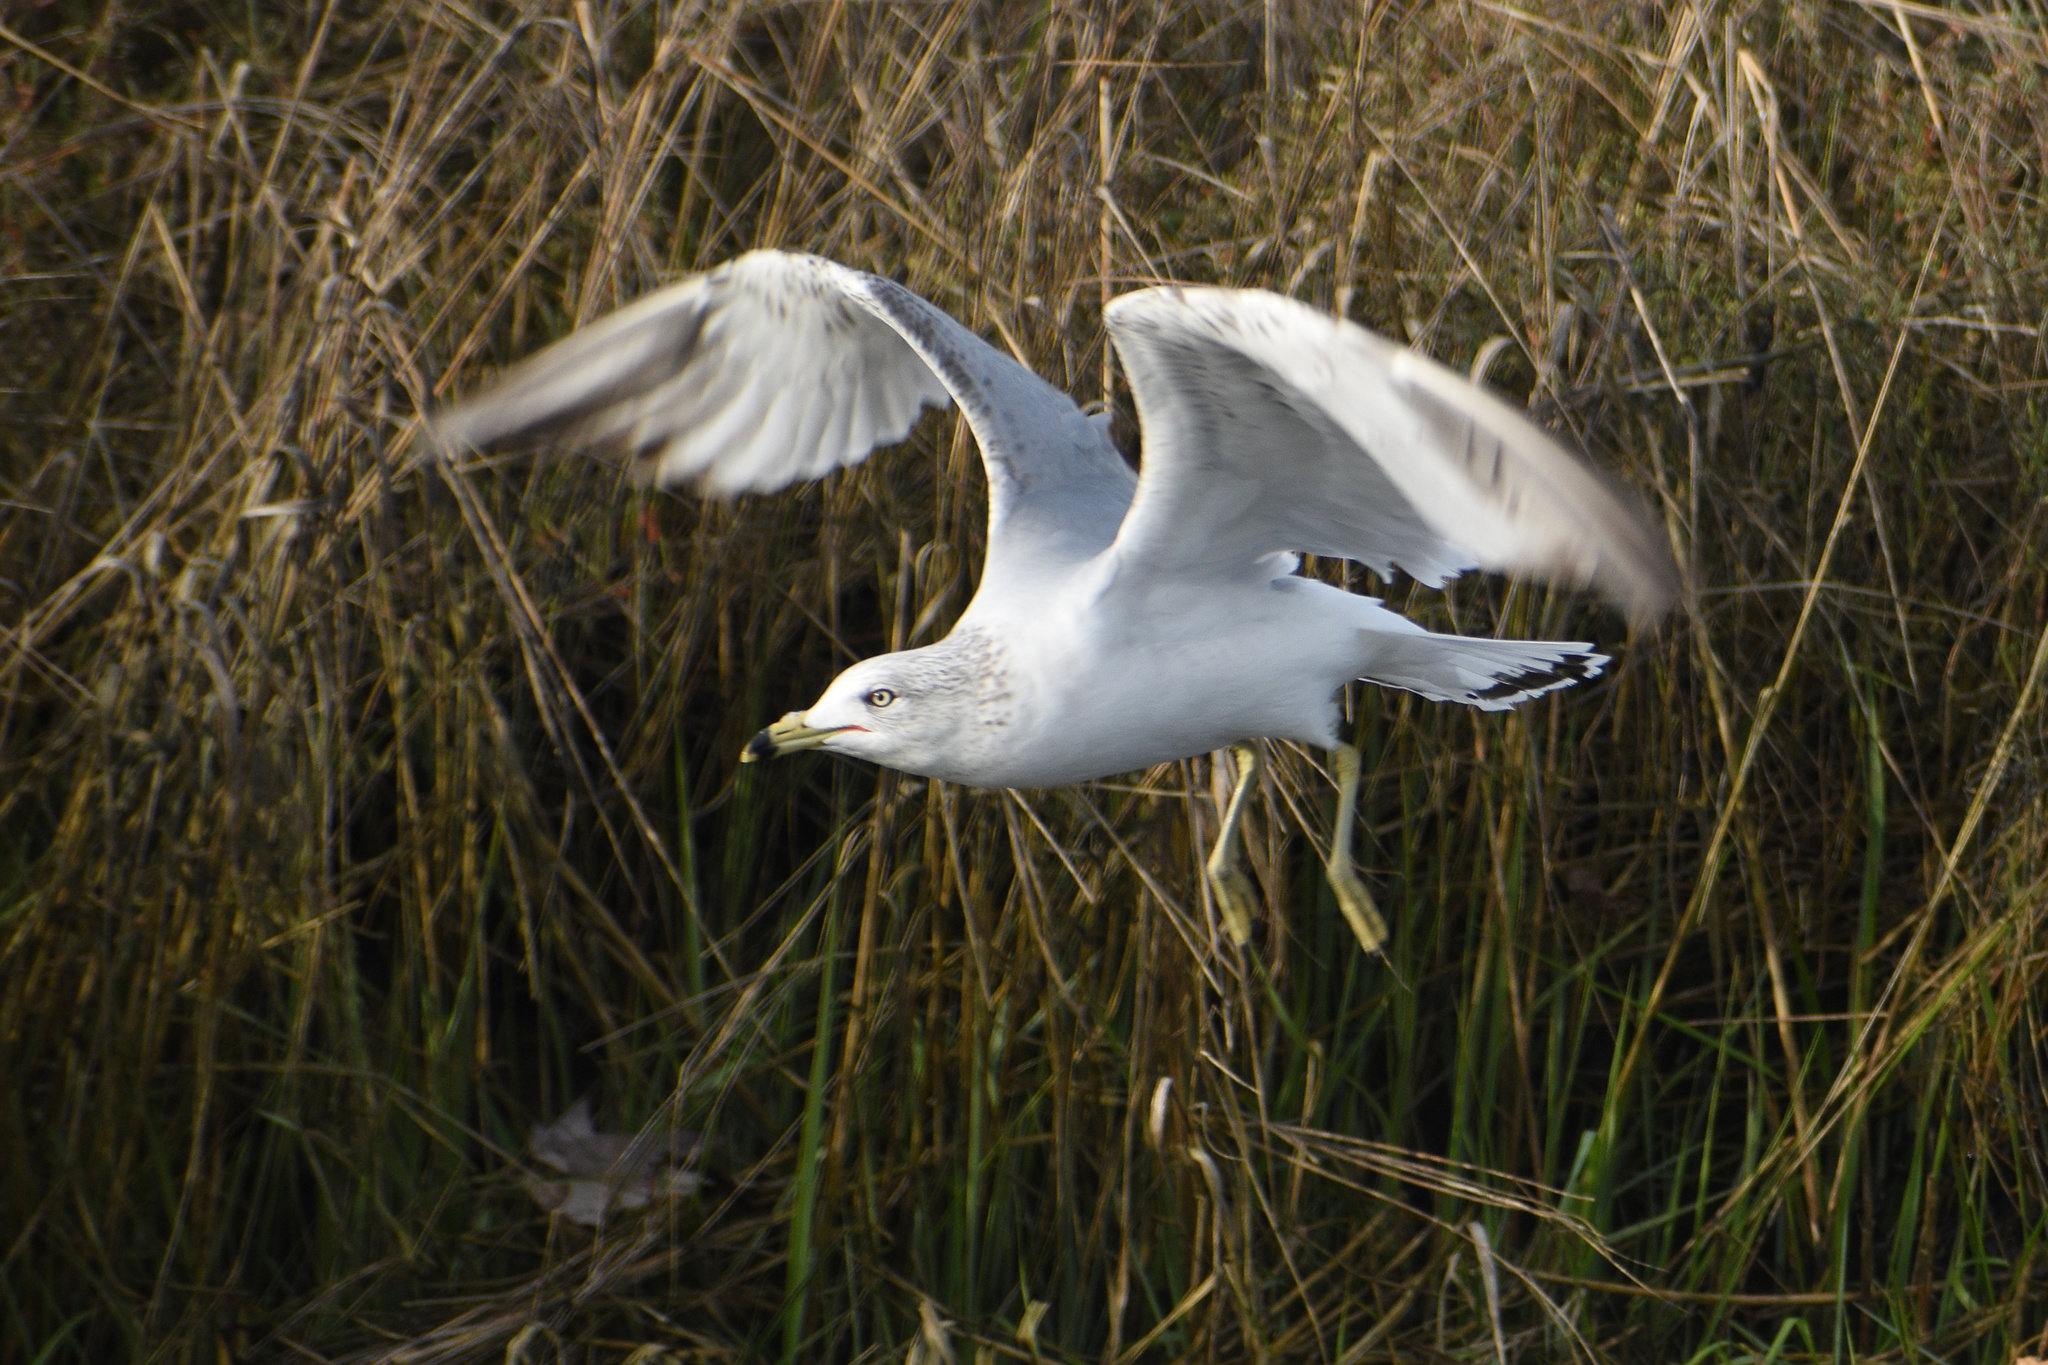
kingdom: Animalia
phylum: Chordata
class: Aves
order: Charadriiformes
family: Laridae
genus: Larus
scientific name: Larus delawarensis
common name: Ring-billed gull
